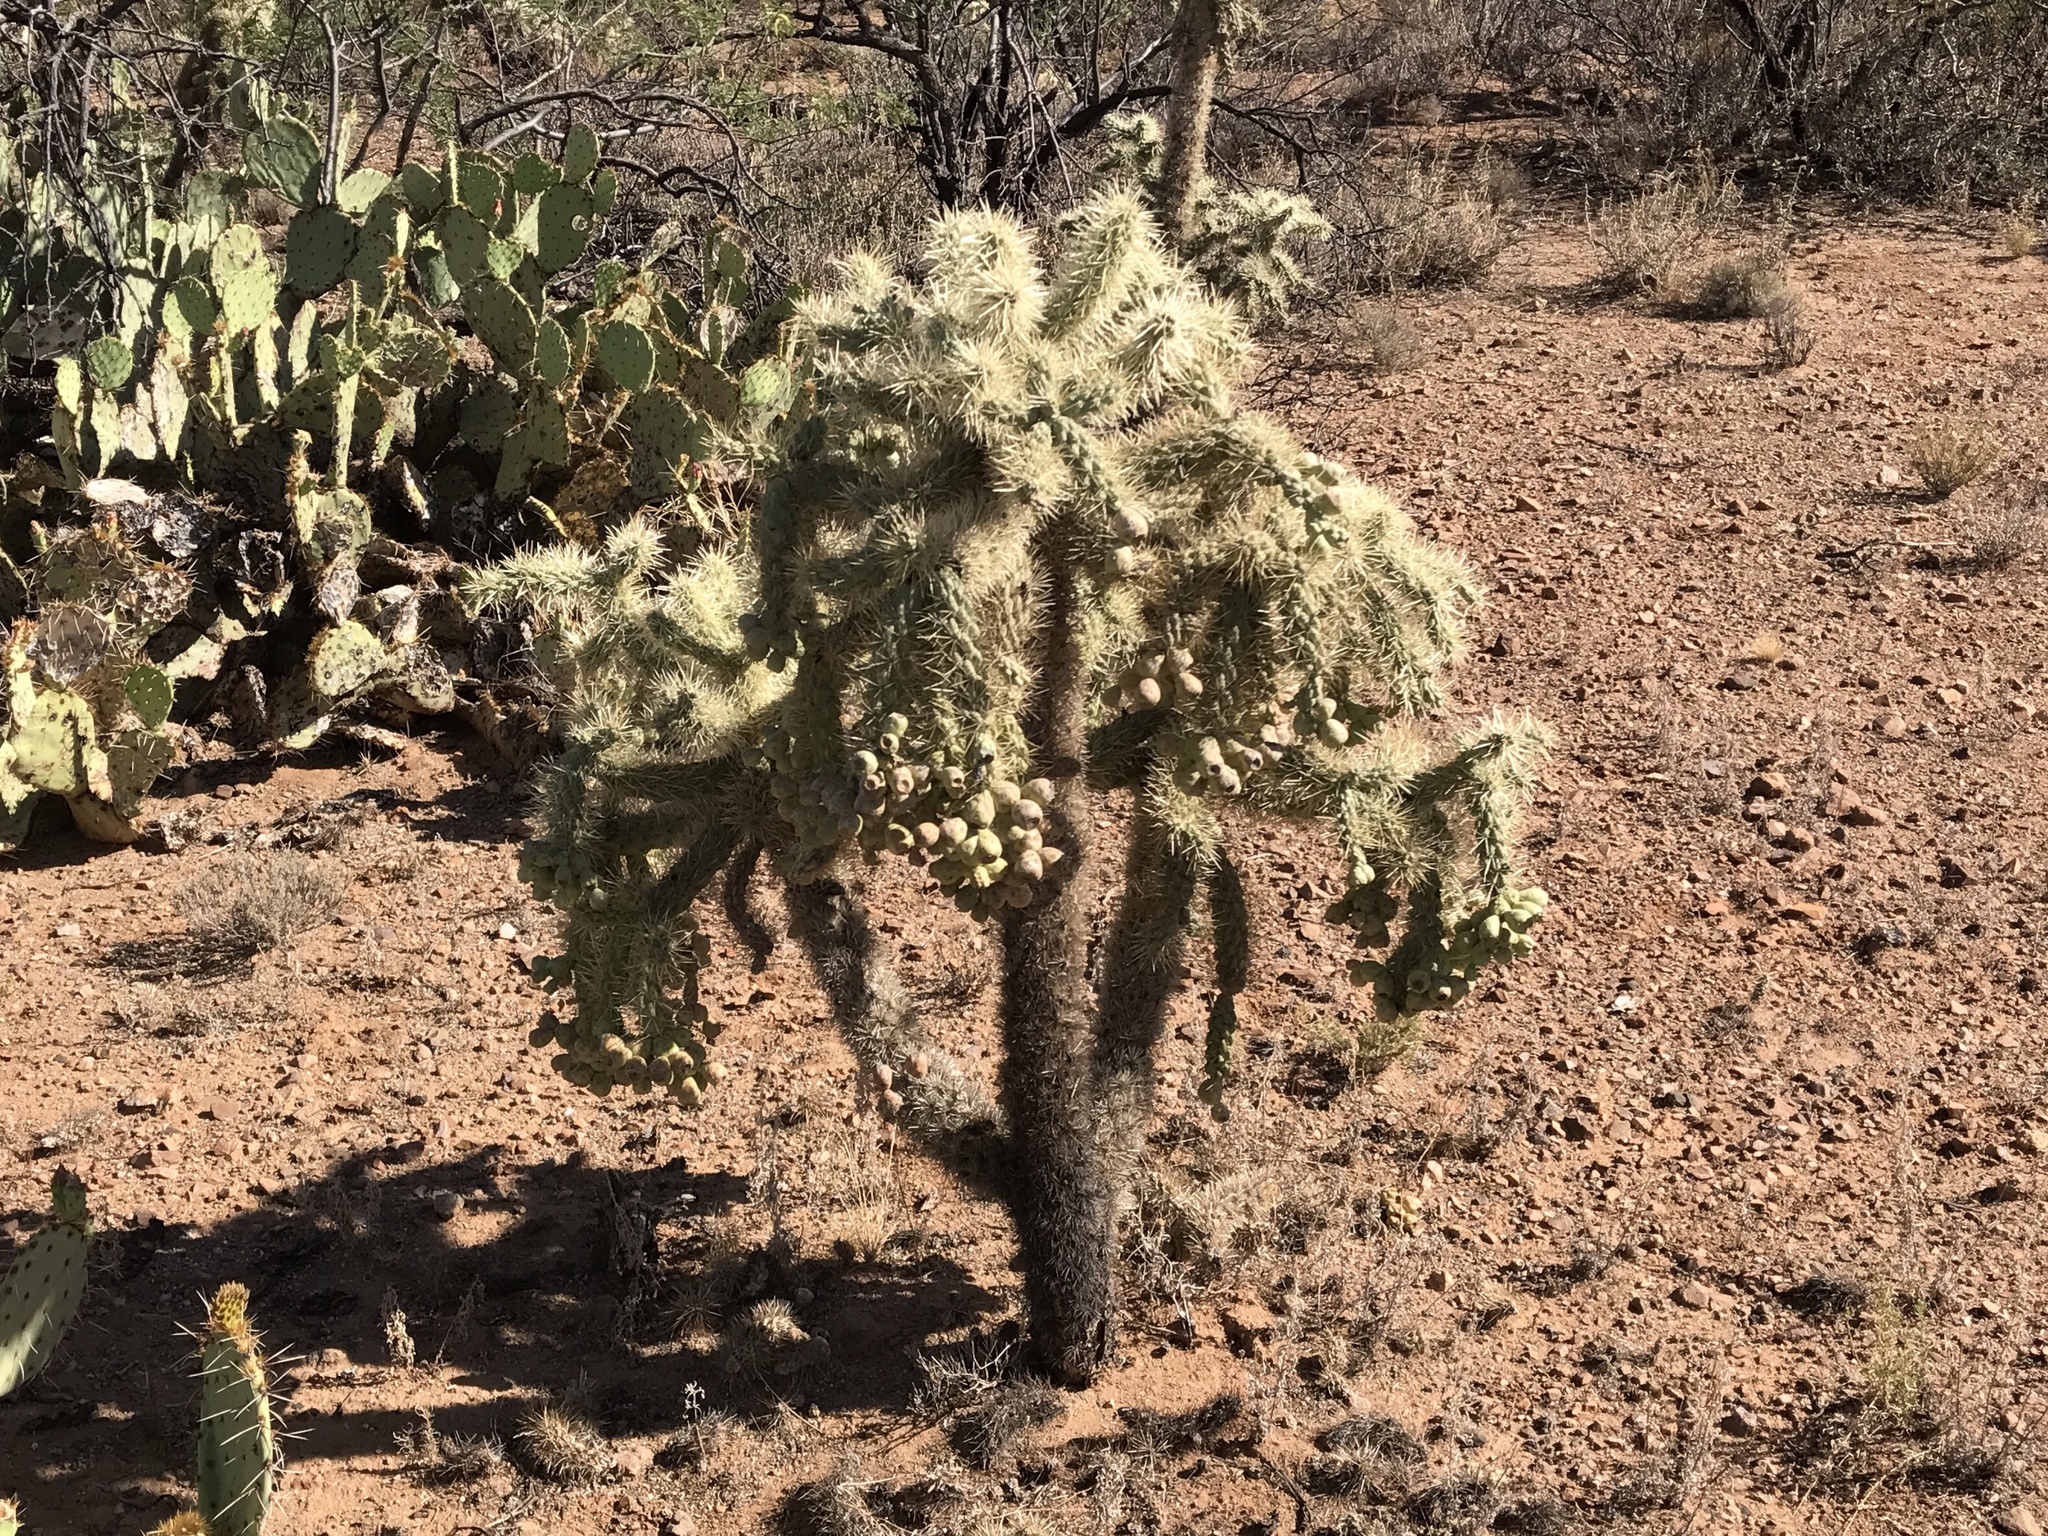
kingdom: Plantae
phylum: Tracheophyta
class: Magnoliopsida
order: Caryophyllales
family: Cactaceae
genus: Cylindropuntia
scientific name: Cylindropuntia fulgida
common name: Jumping cholla
